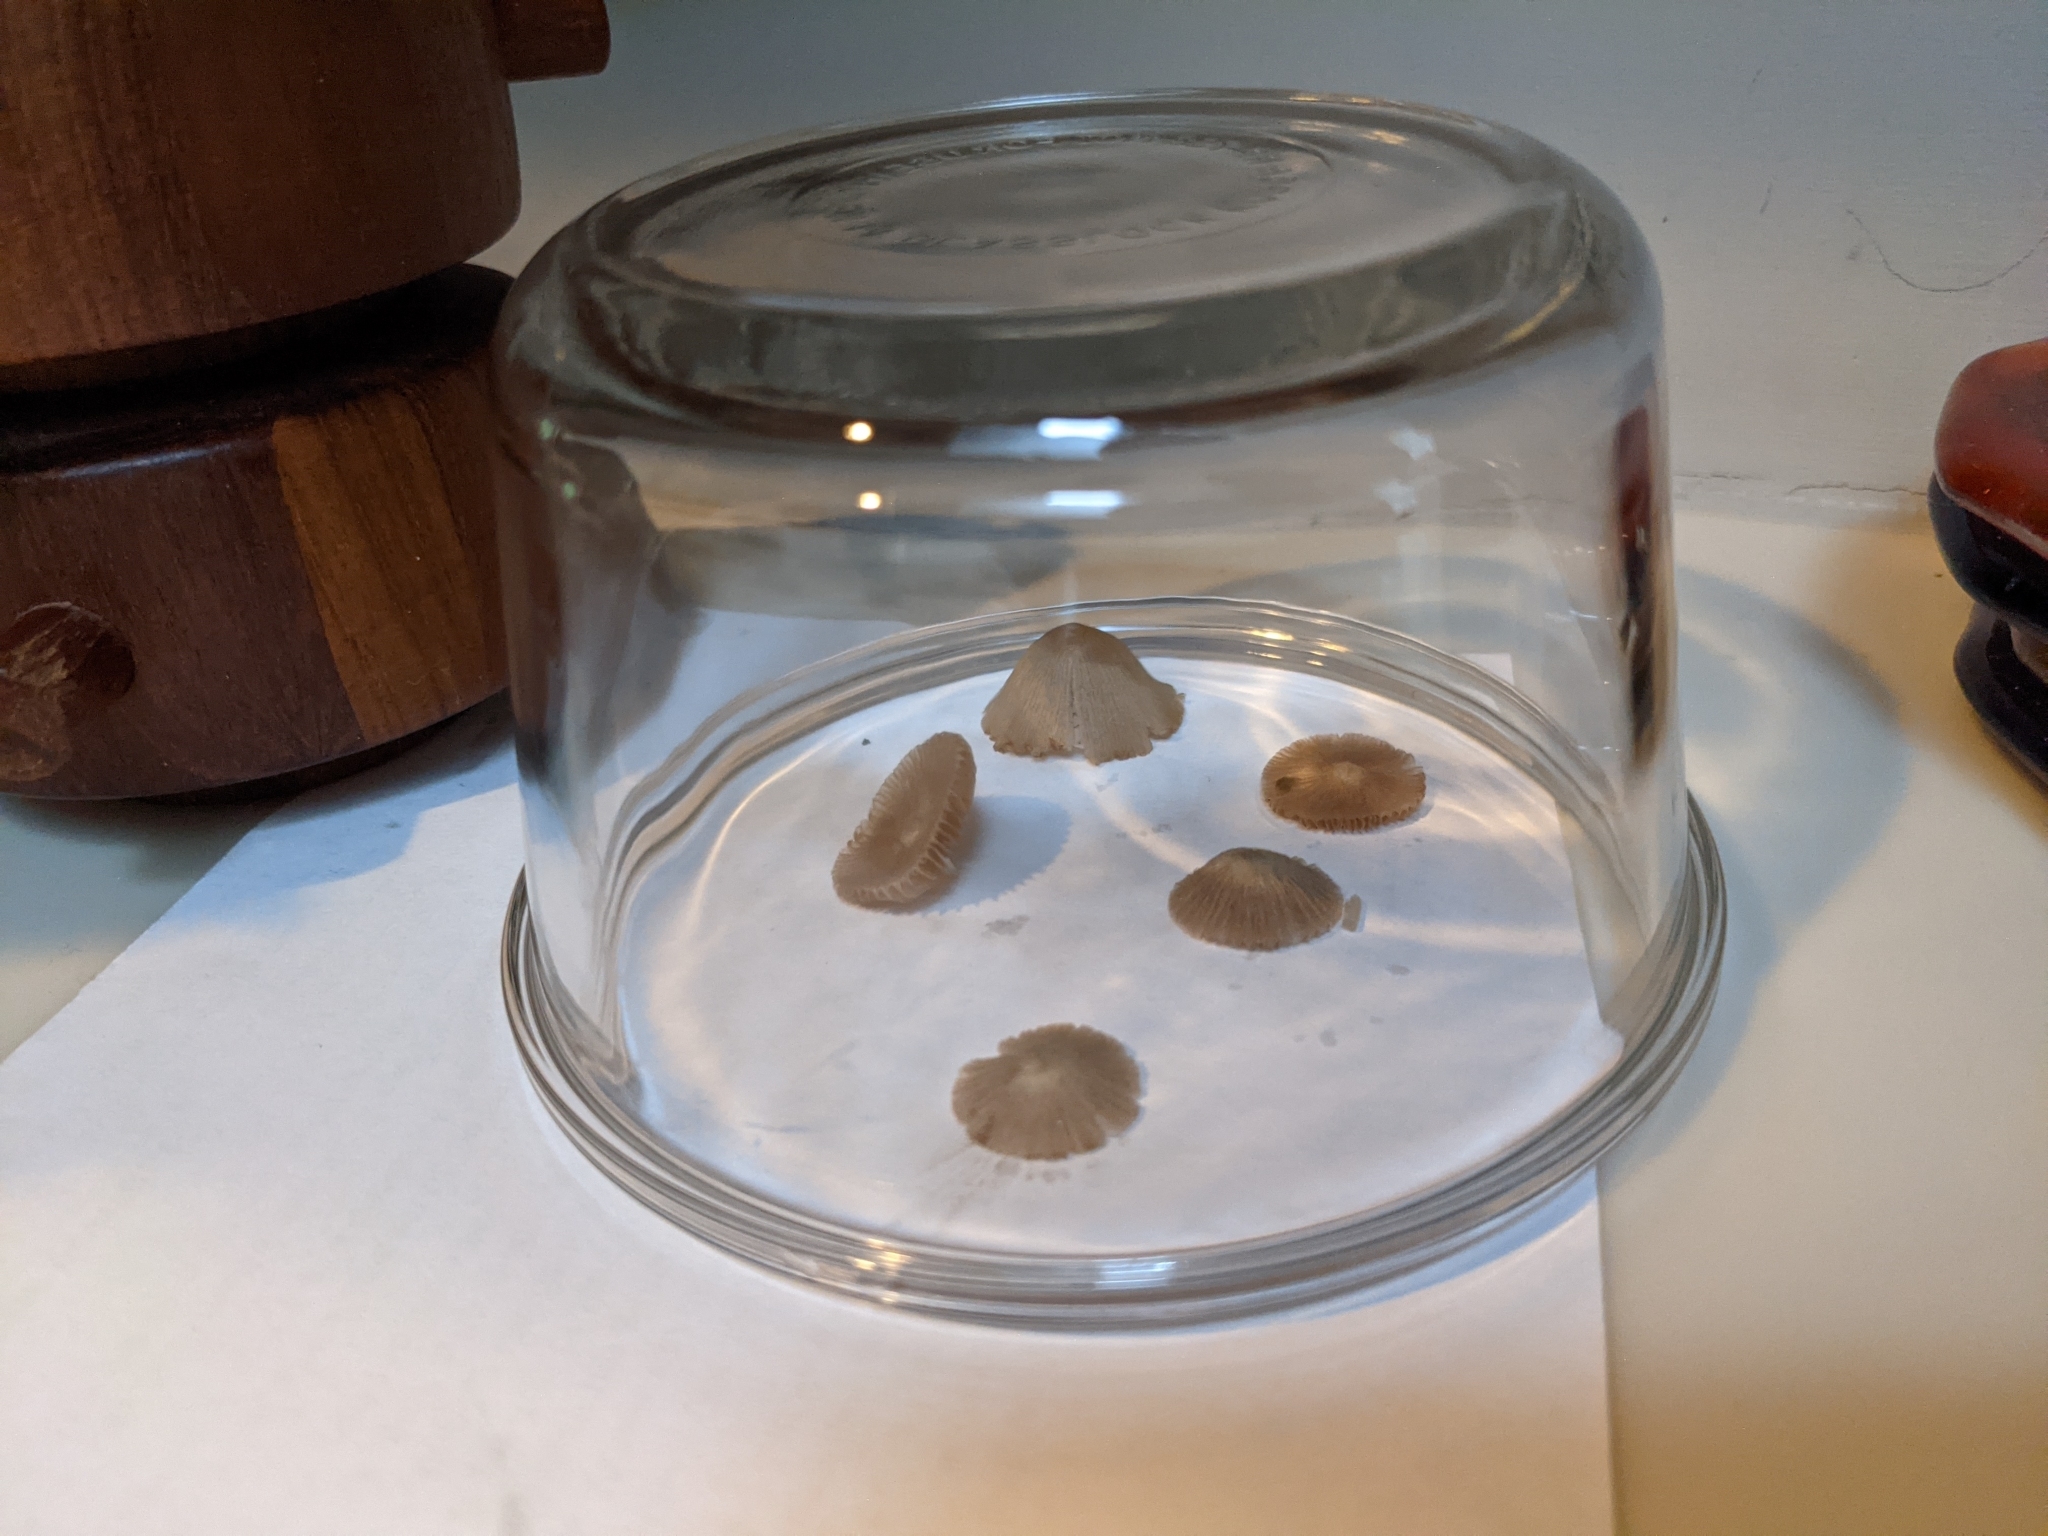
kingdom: Fungi
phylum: Basidiomycota
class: Agaricomycetes
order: Agaricales
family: Bolbitiaceae
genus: Conocybe
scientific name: Conocybe apala
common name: Milky conecap
